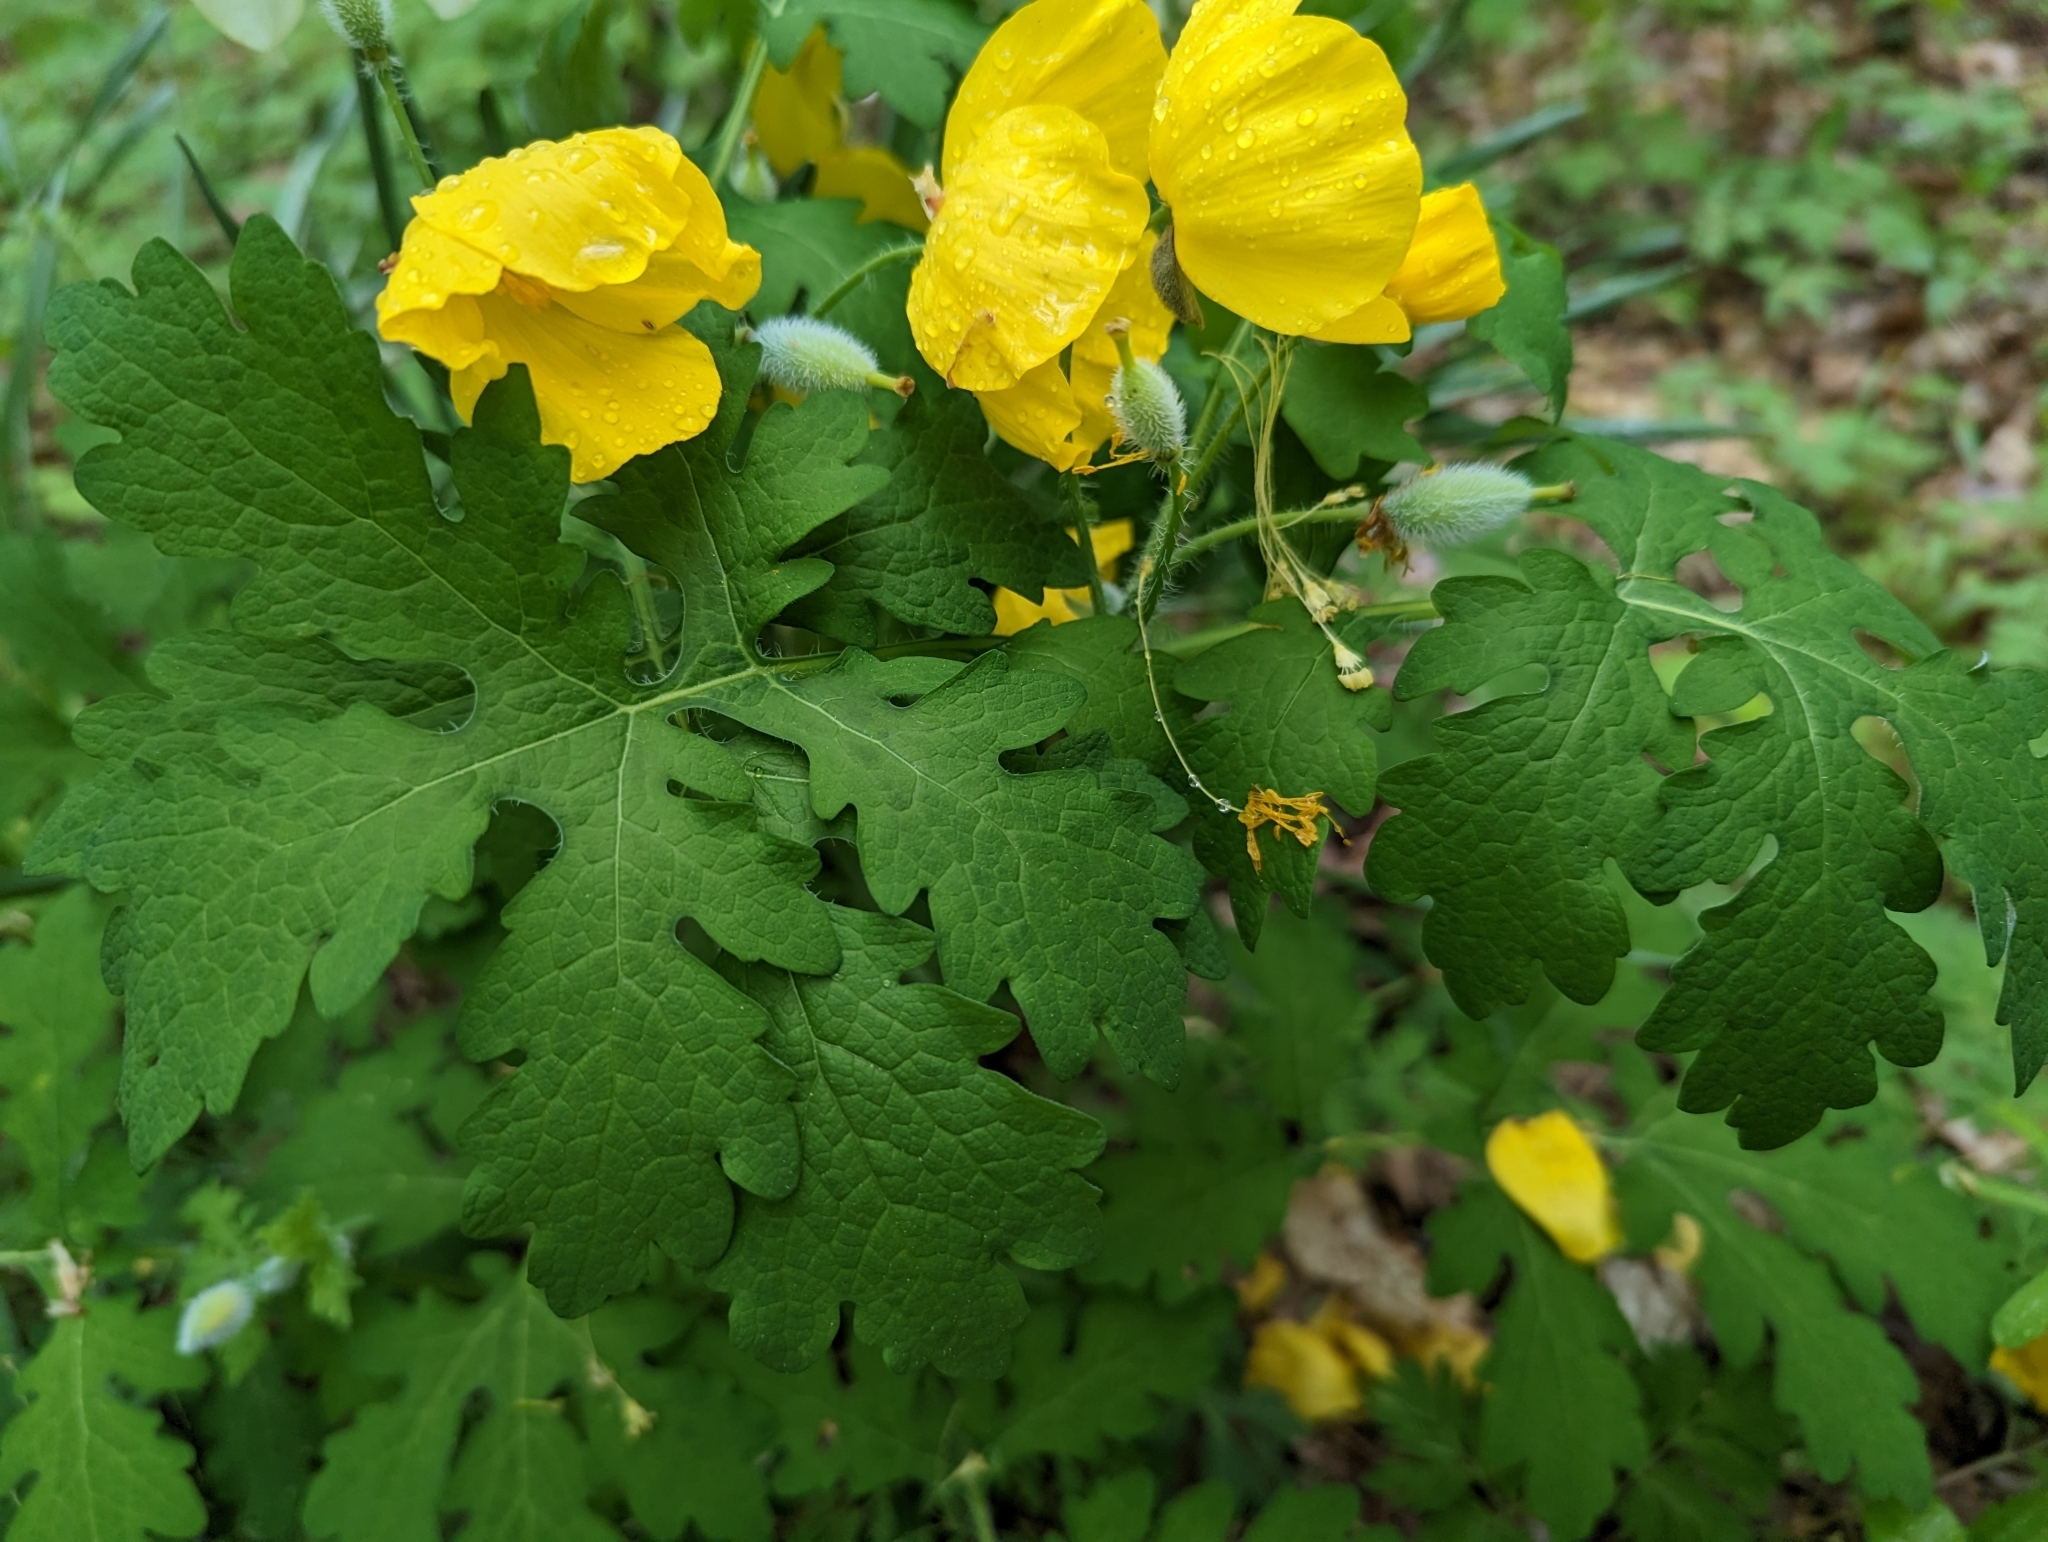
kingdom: Plantae
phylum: Tracheophyta
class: Magnoliopsida
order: Ranunculales
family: Papaveraceae
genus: Stylophorum
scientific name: Stylophorum diphyllum
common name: Celandine poppy
